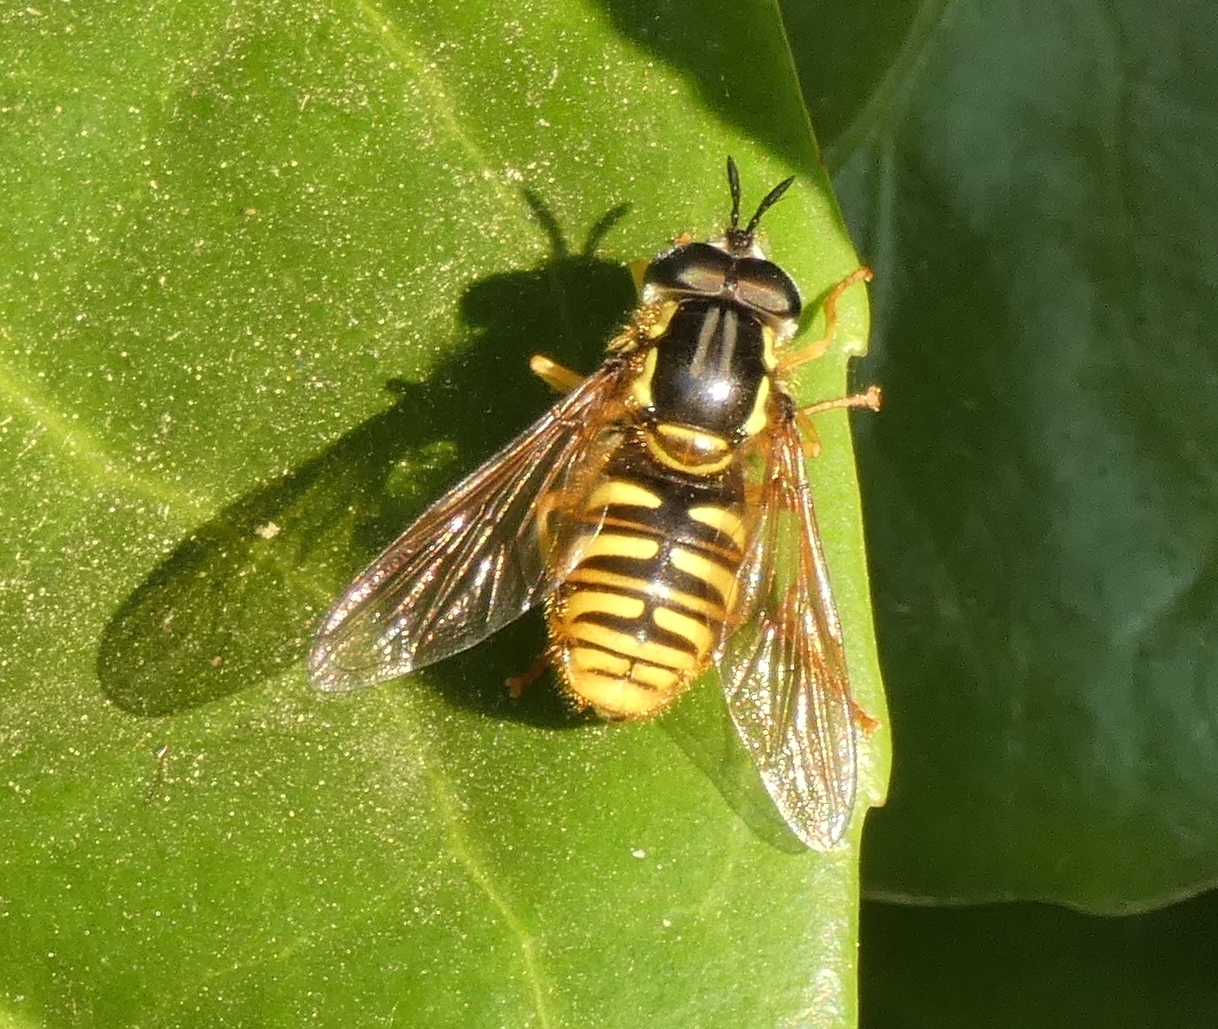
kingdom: Animalia
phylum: Arthropoda
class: Insecta
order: Diptera
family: Syrphidae
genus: Chrysotoxum
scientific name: Chrysotoxum cautum
